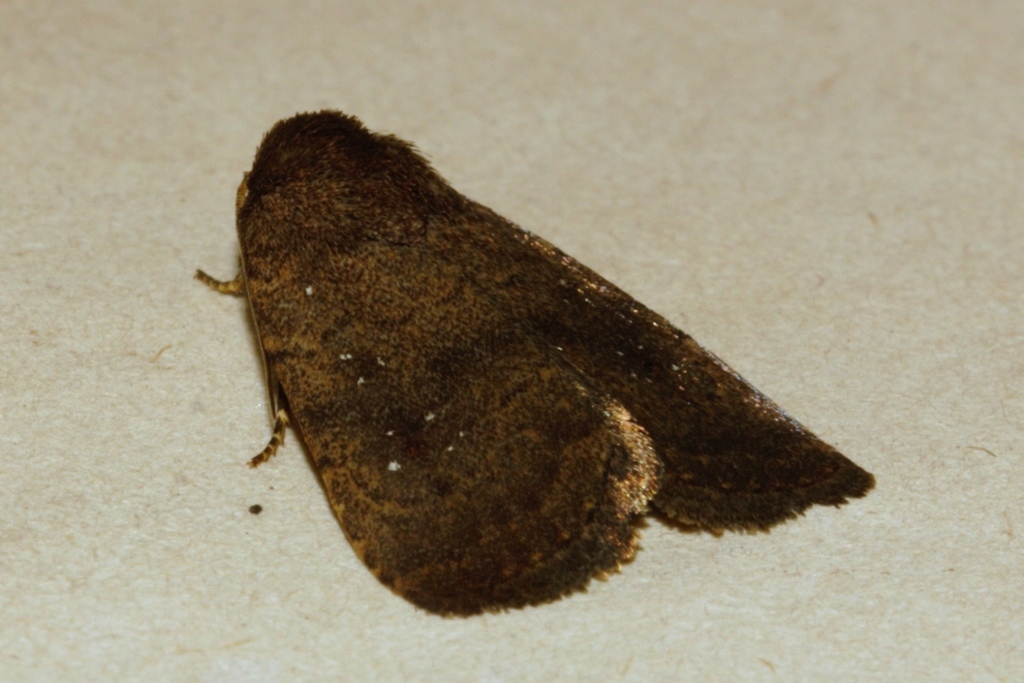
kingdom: Animalia
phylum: Arthropoda
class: Insecta
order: Lepidoptera
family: Noctuidae
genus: Athetis
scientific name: Athetis satellitia
